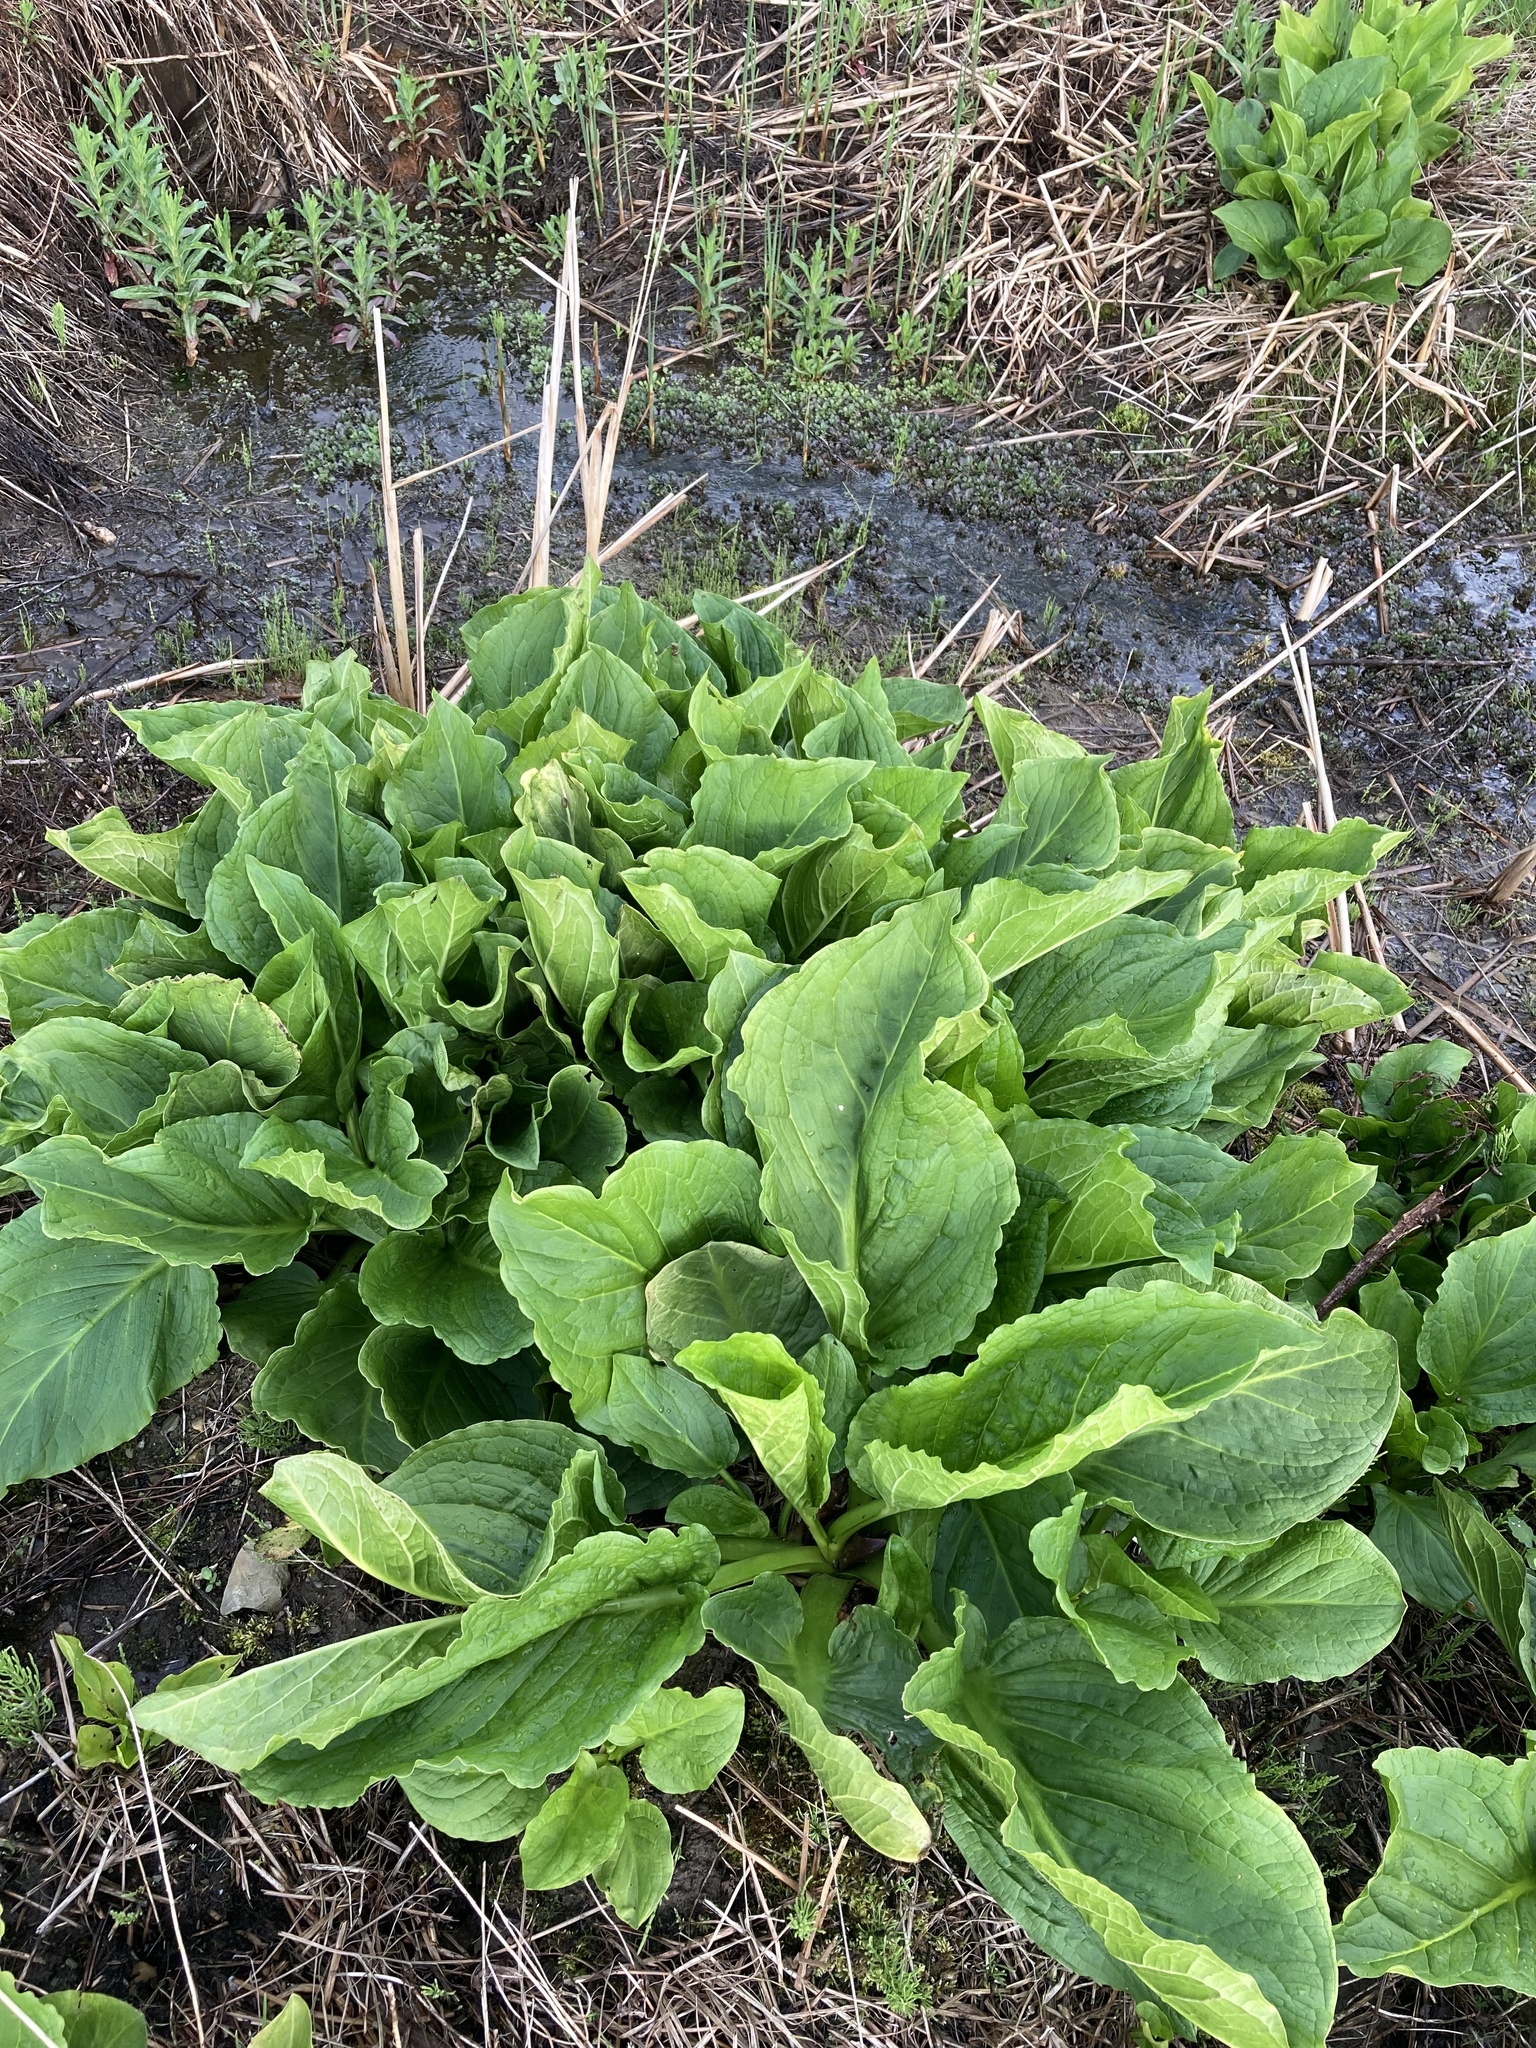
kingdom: Plantae
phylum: Tracheophyta
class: Liliopsida
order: Alismatales
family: Araceae
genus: Symplocarpus
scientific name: Symplocarpus foetidus
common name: Eastern skunk cabbage
